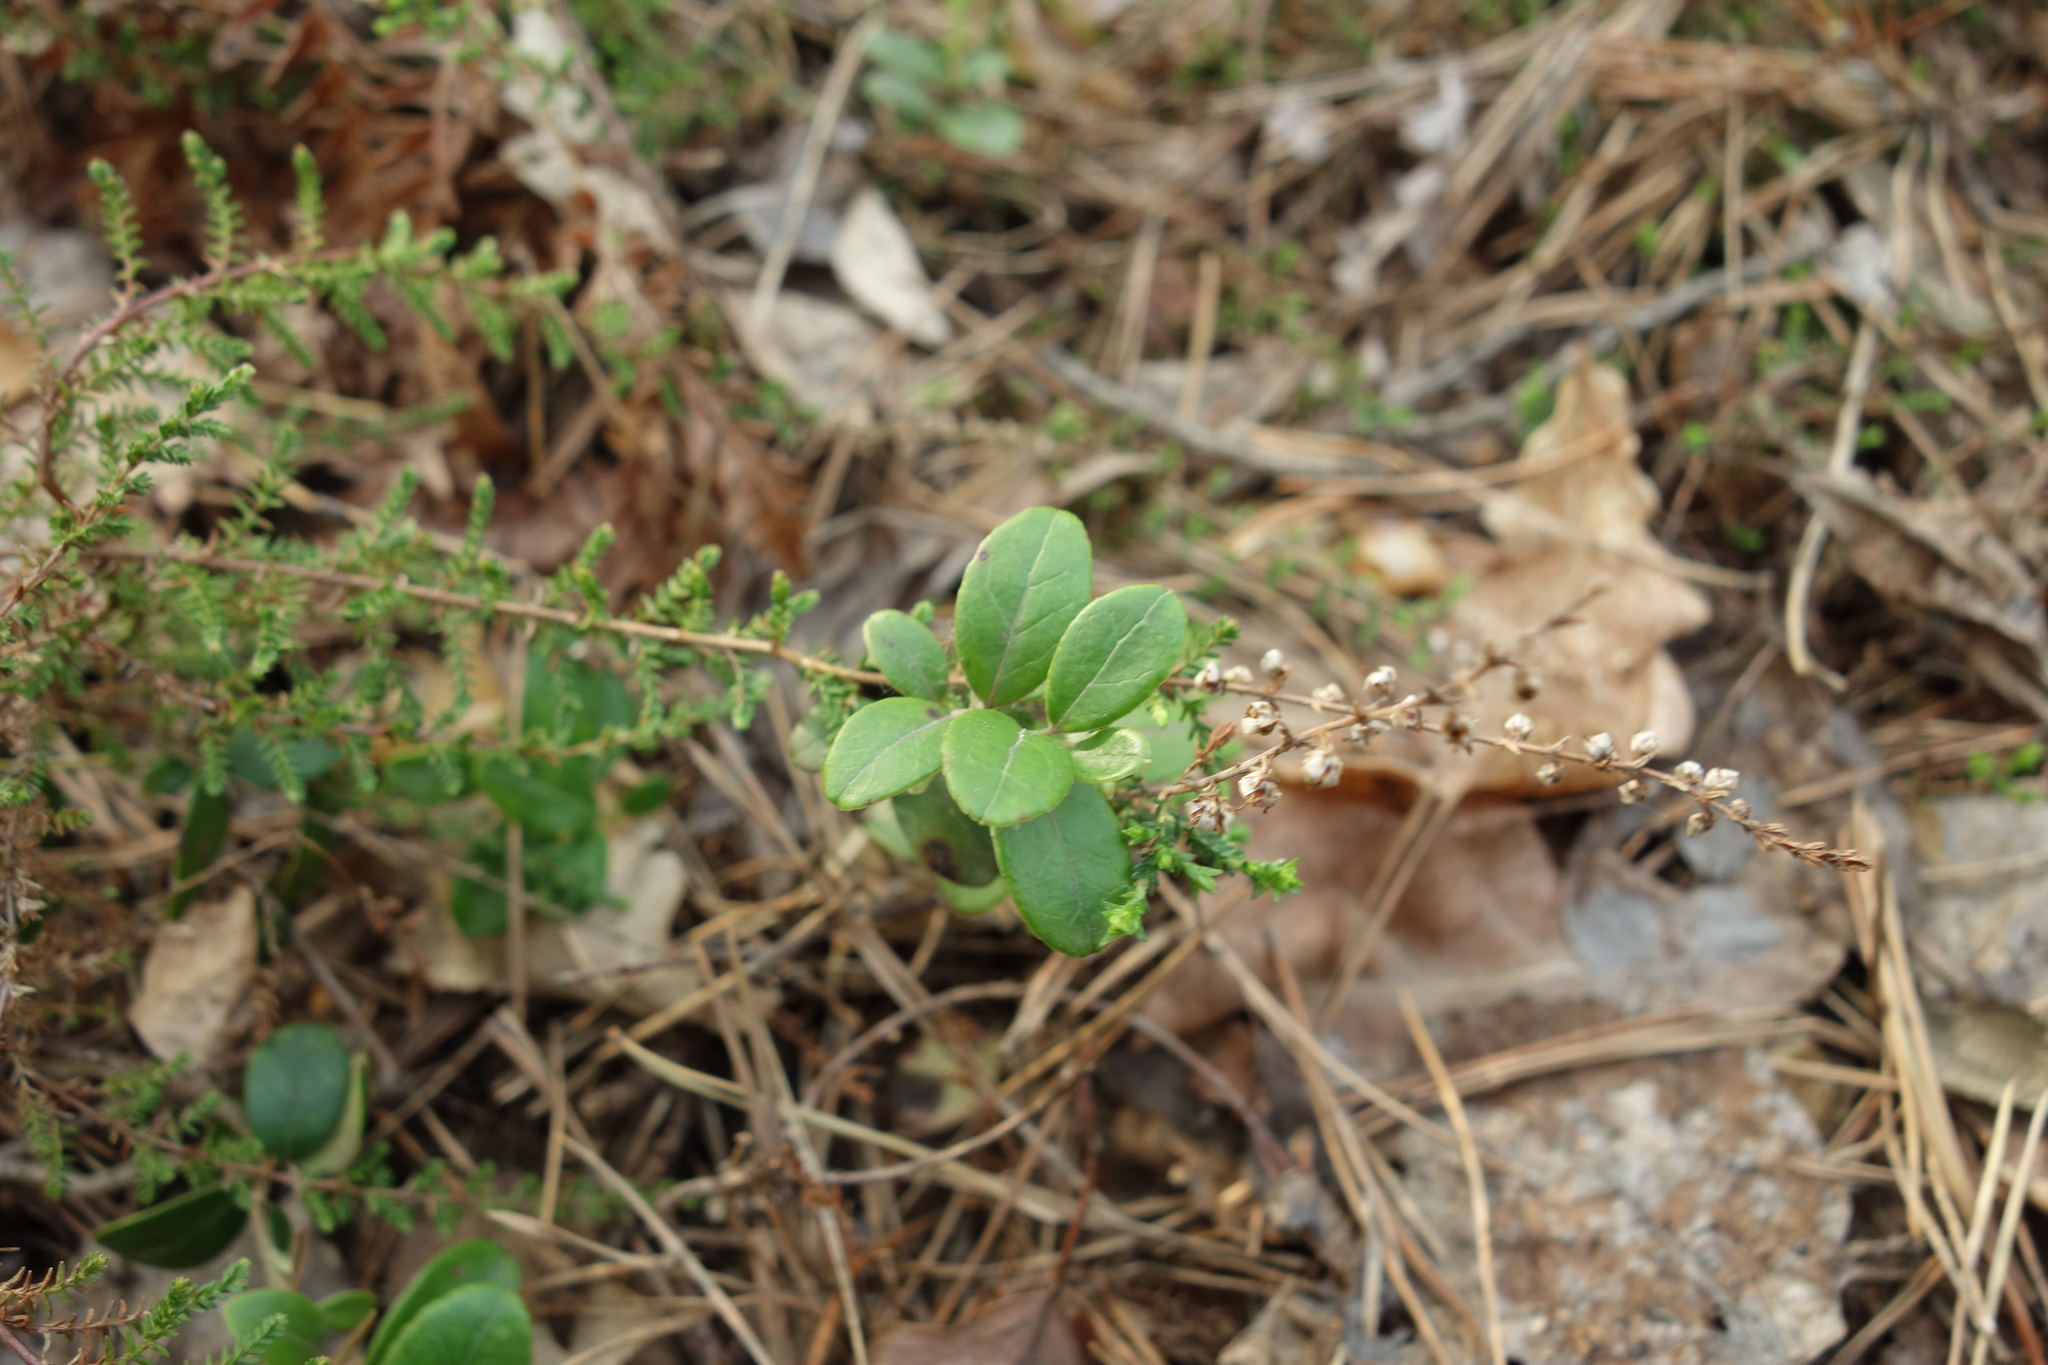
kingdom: Plantae
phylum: Tracheophyta
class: Magnoliopsida
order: Ericales
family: Ericaceae
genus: Vaccinium
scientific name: Vaccinium vitis-idaea
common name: Cowberry
